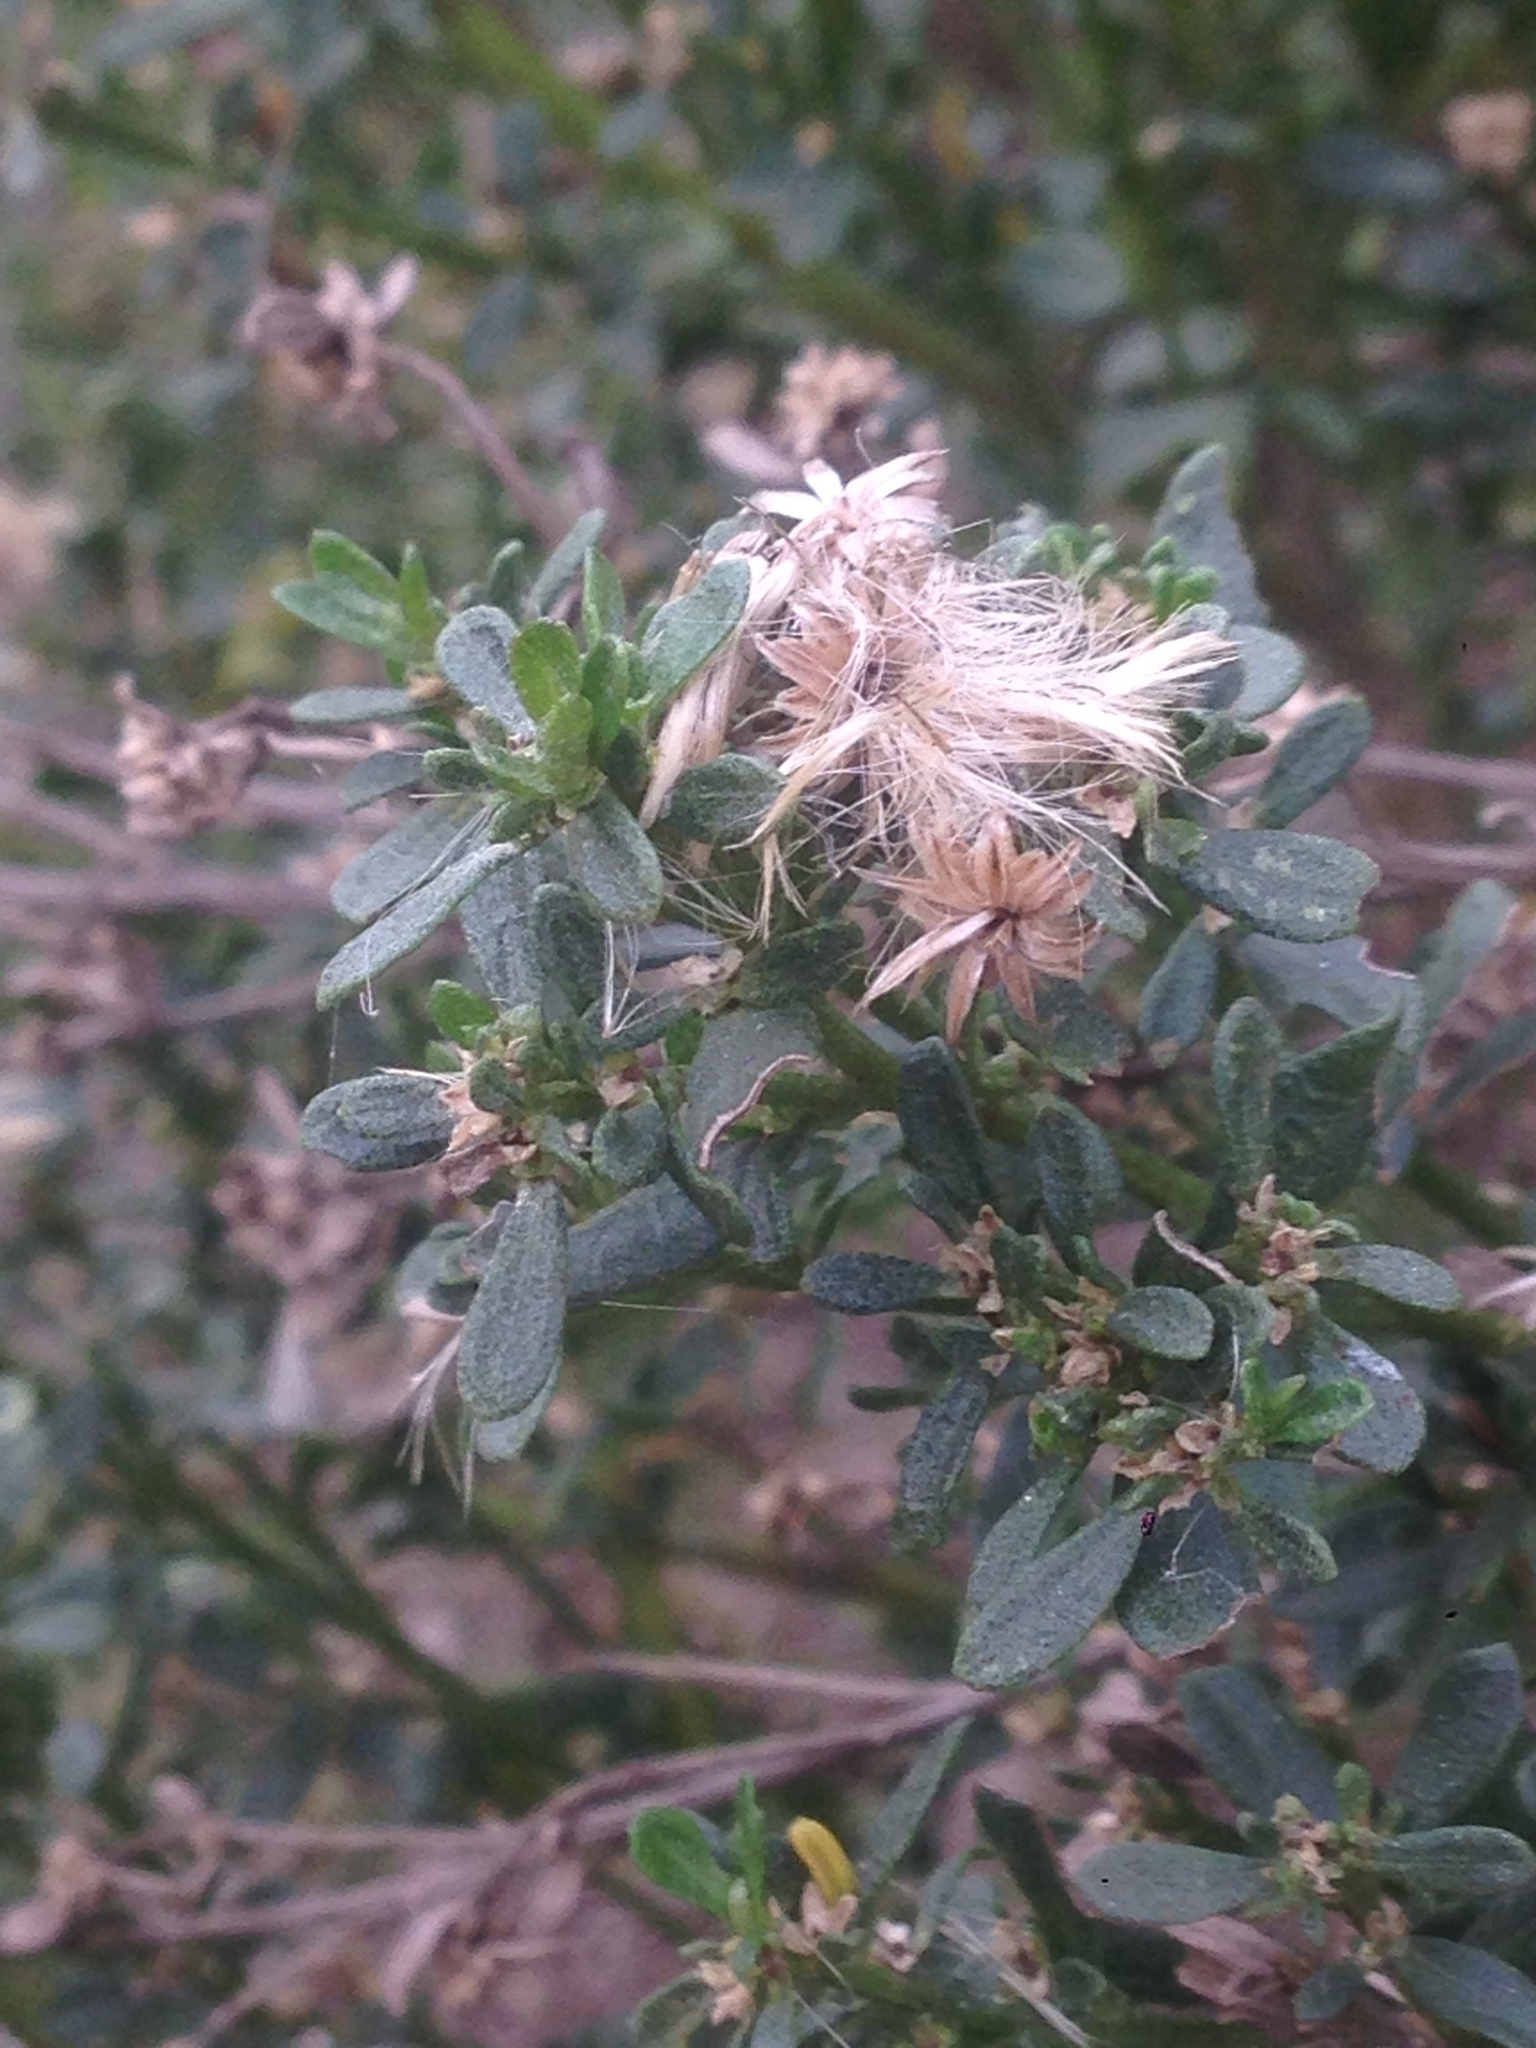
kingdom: Plantae
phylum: Tracheophyta
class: Magnoliopsida
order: Asterales
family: Asteraceae
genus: Baccharis
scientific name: Baccharis pilularis
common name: Coyotebrush
